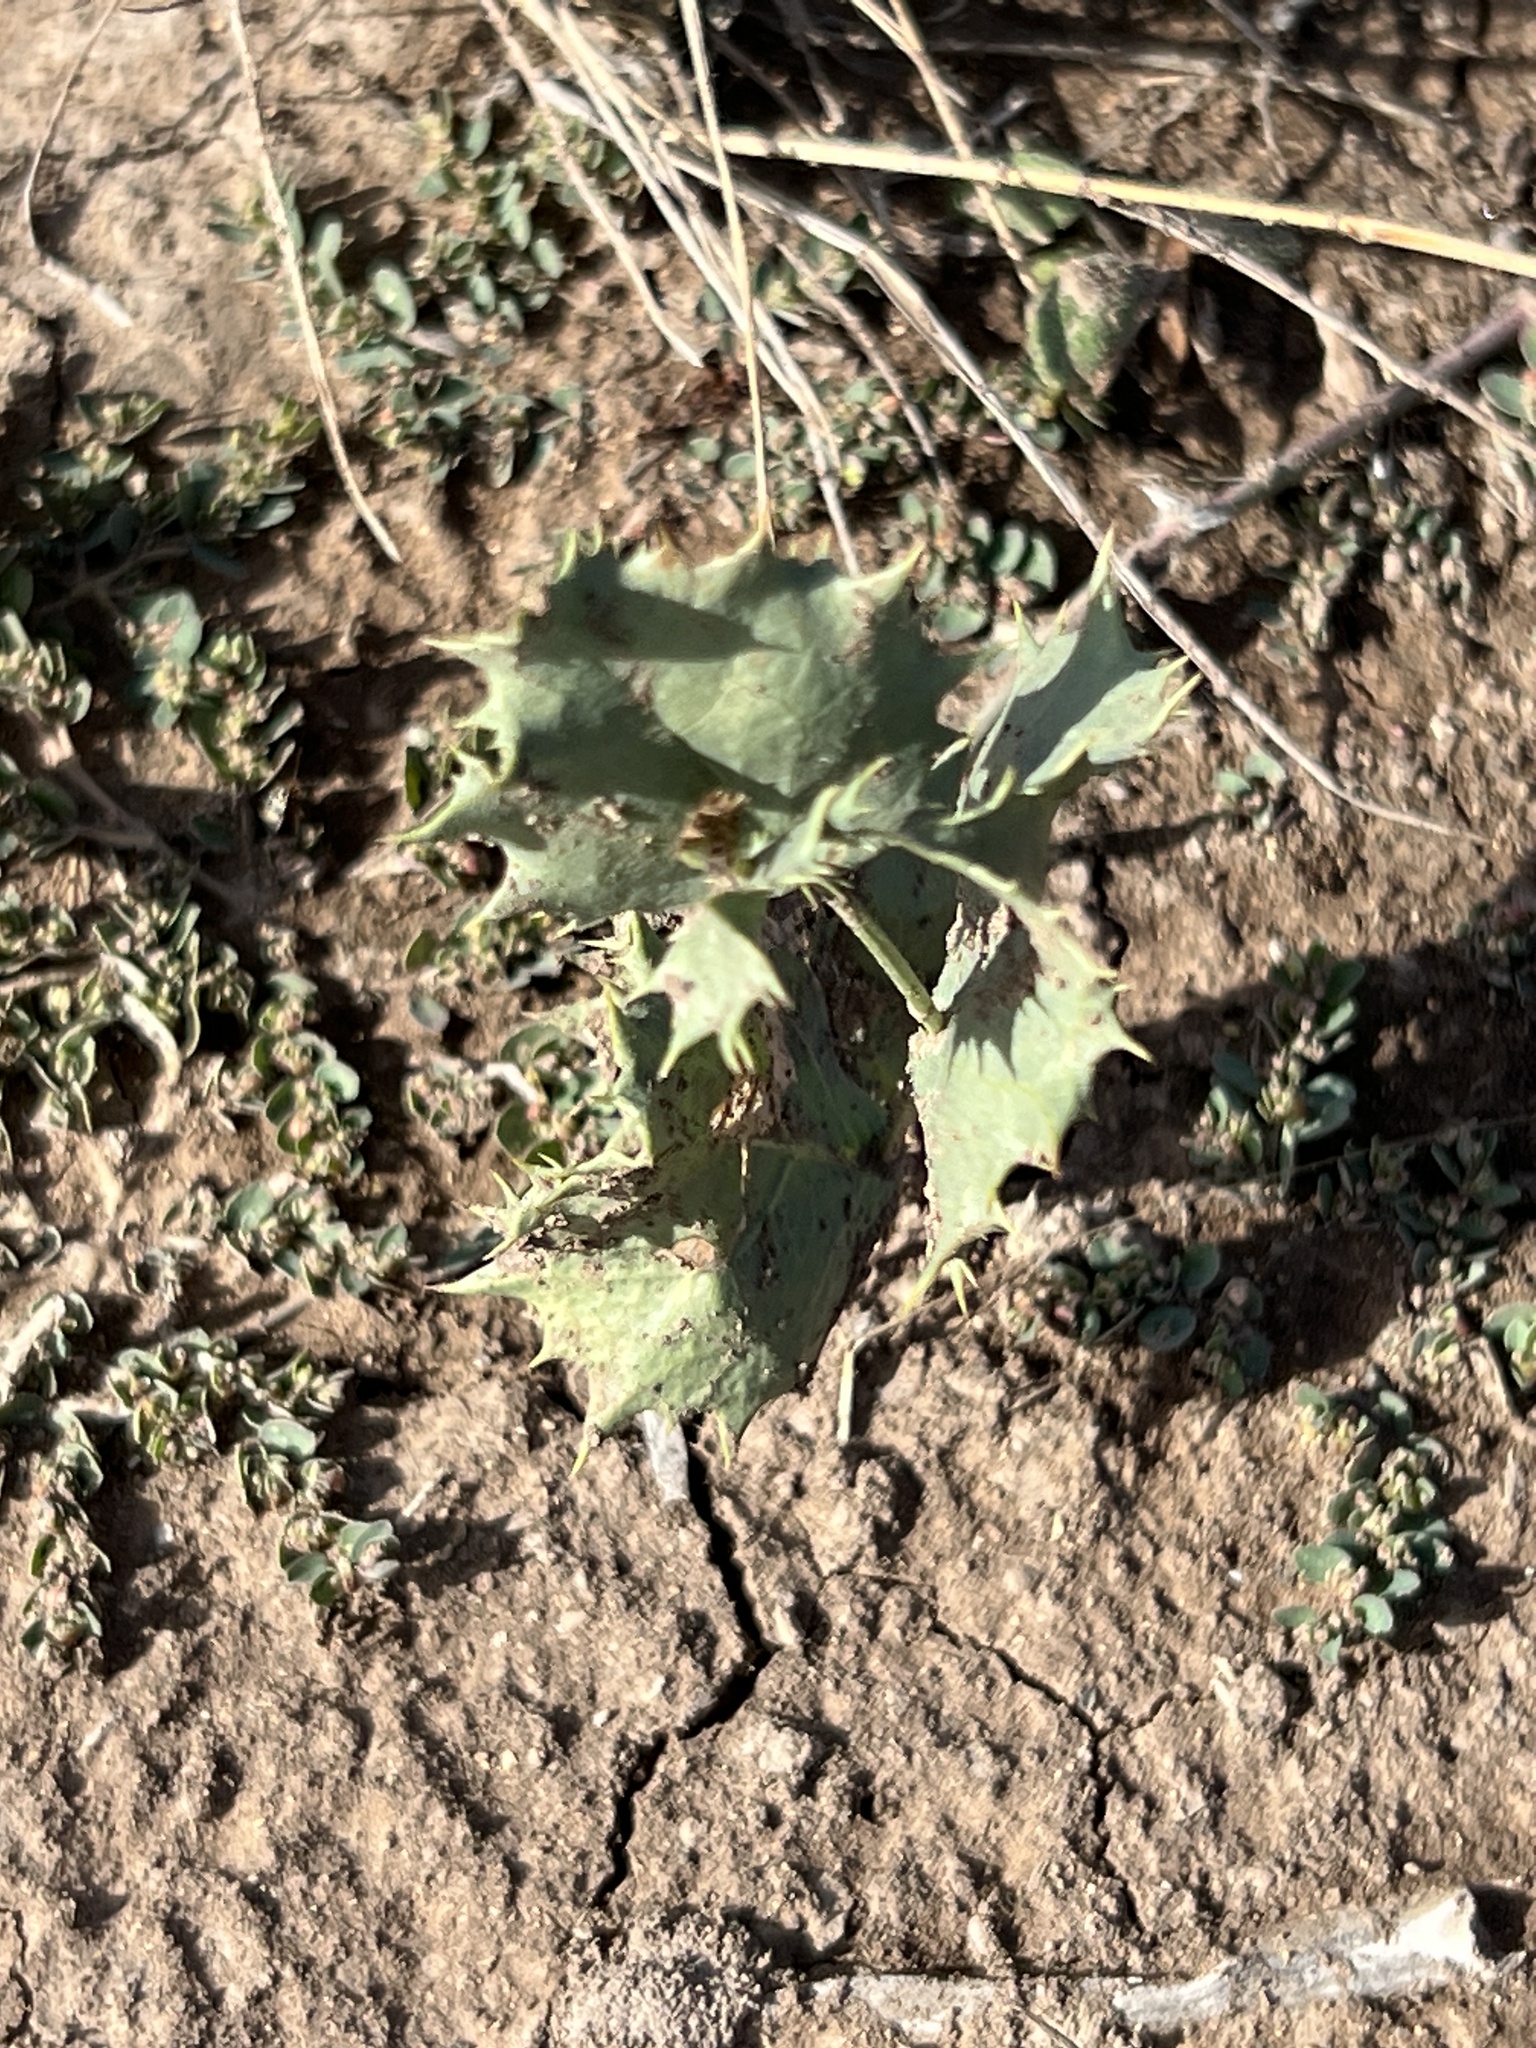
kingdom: Plantae
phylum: Tracheophyta
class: Magnoliopsida
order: Asterales
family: Asteraceae
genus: Acourtia
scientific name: Acourtia nana
